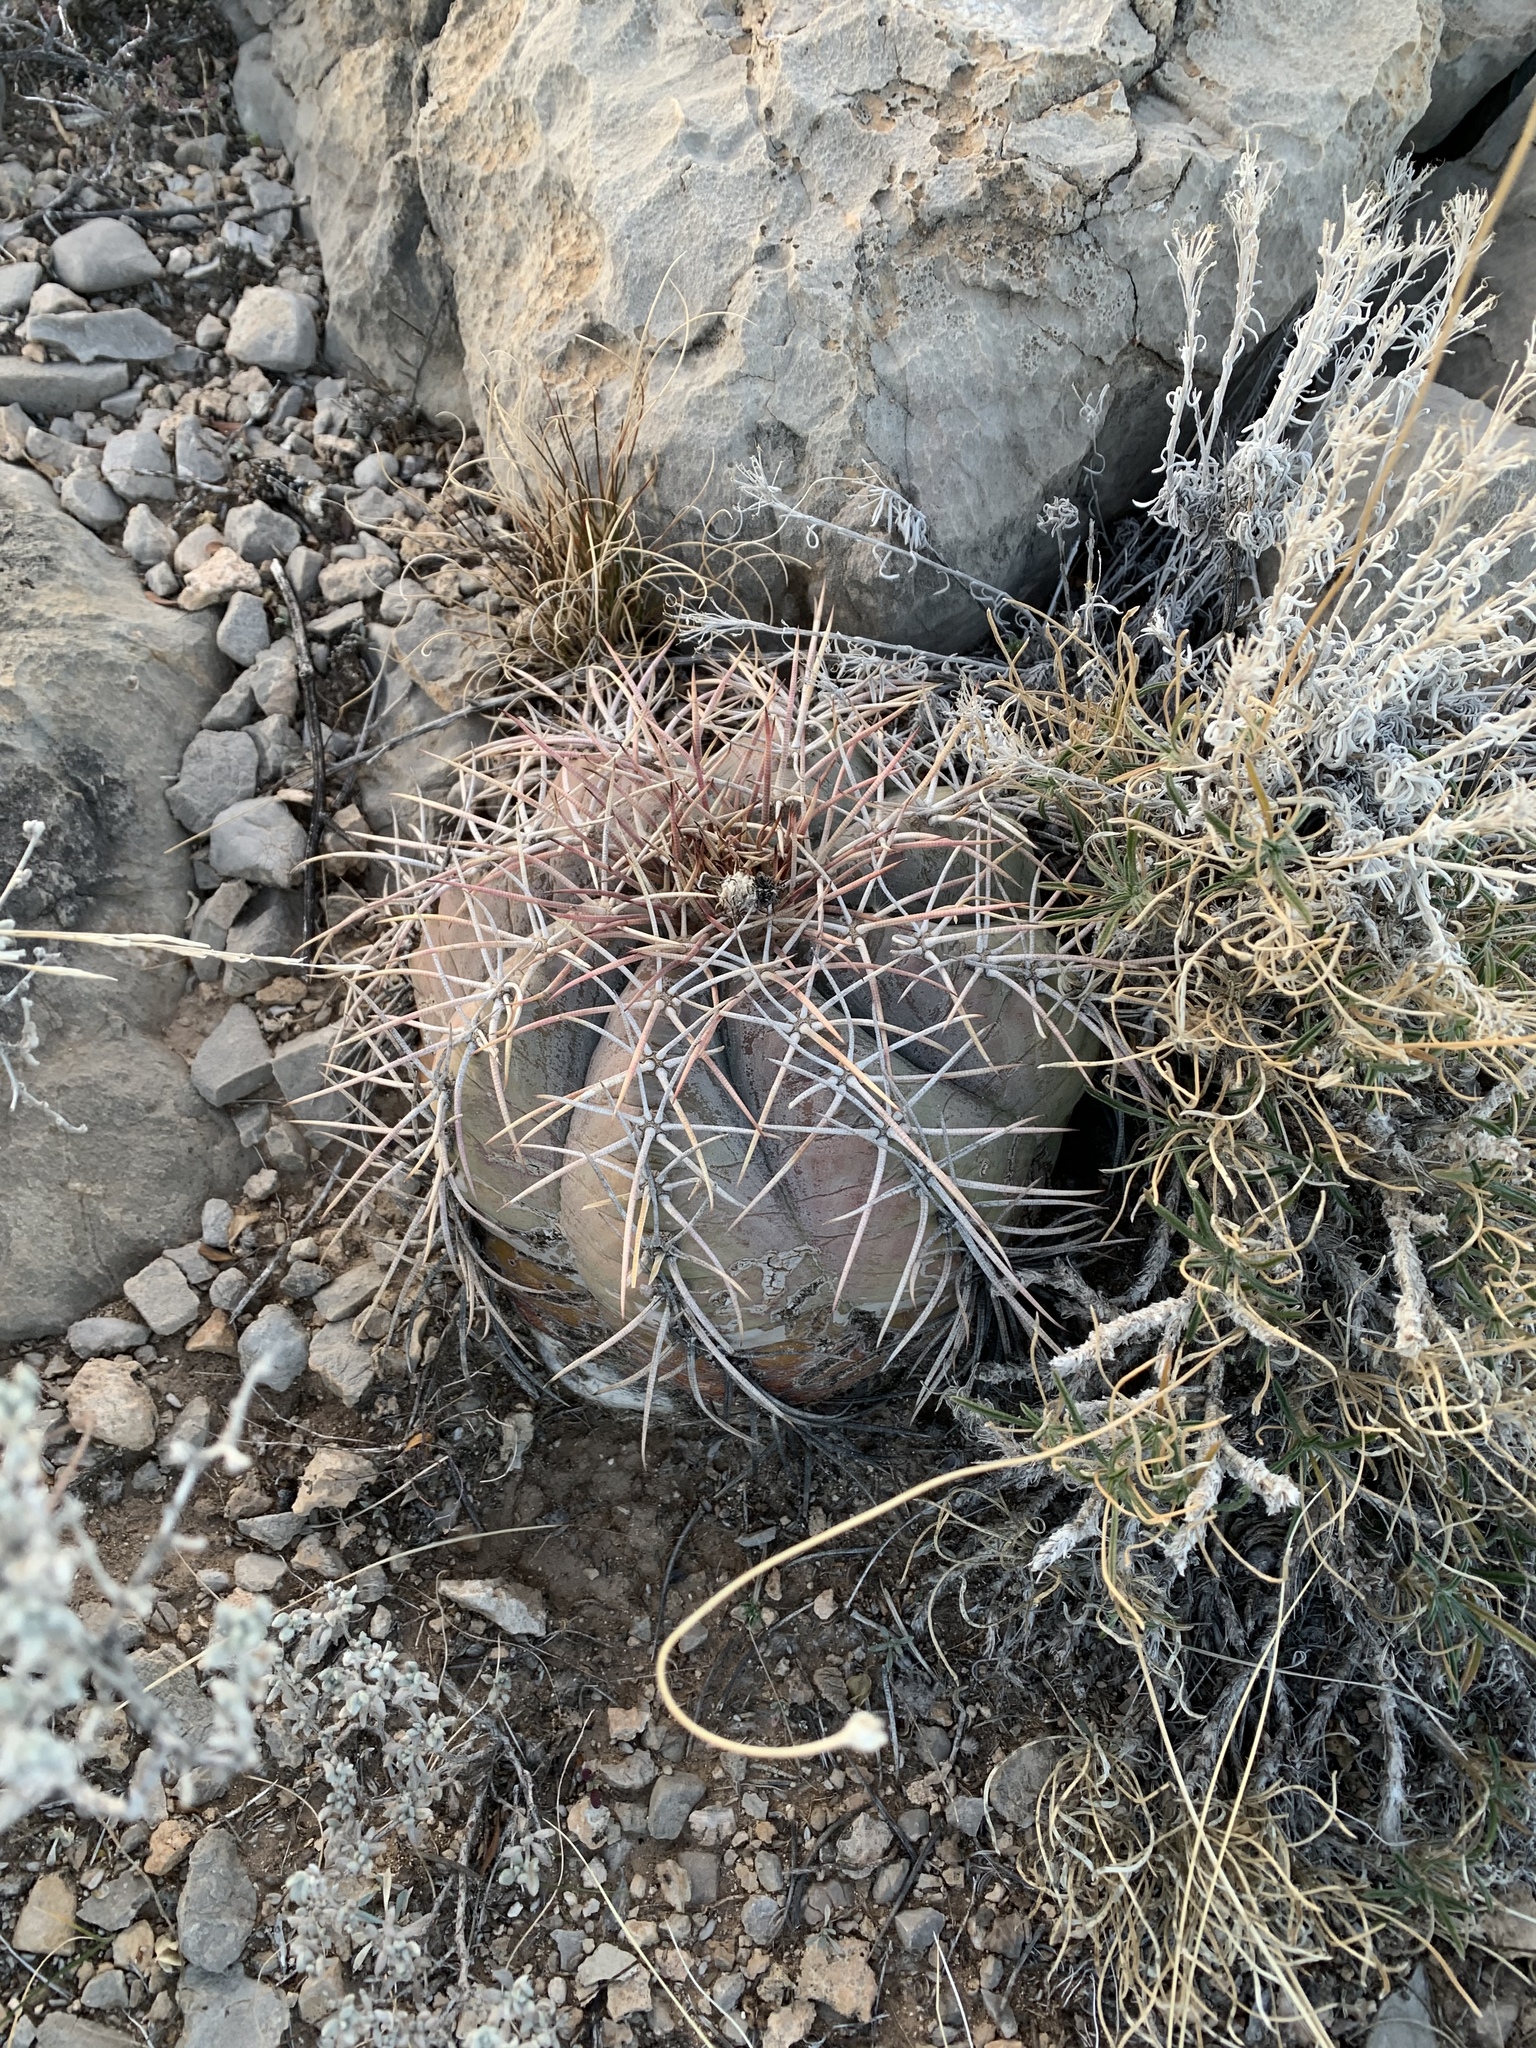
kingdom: Plantae
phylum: Tracheophyta
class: Magnoliopsida
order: Caryophyllales
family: Cactaceae
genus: Echinocactus
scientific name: Echinocactus horizonthalonius
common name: Devilshead
